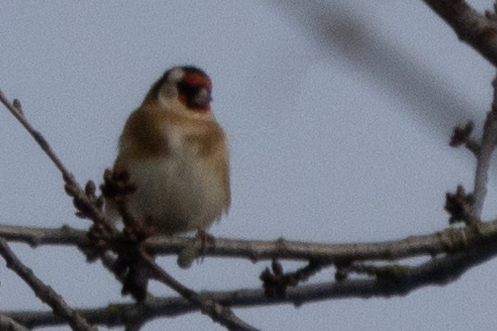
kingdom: Animalia
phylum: Chordata
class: Aves
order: Passeriformes
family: Fringillidae
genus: Carduelis
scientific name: Carduelis carduelis
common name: European goldfinch
